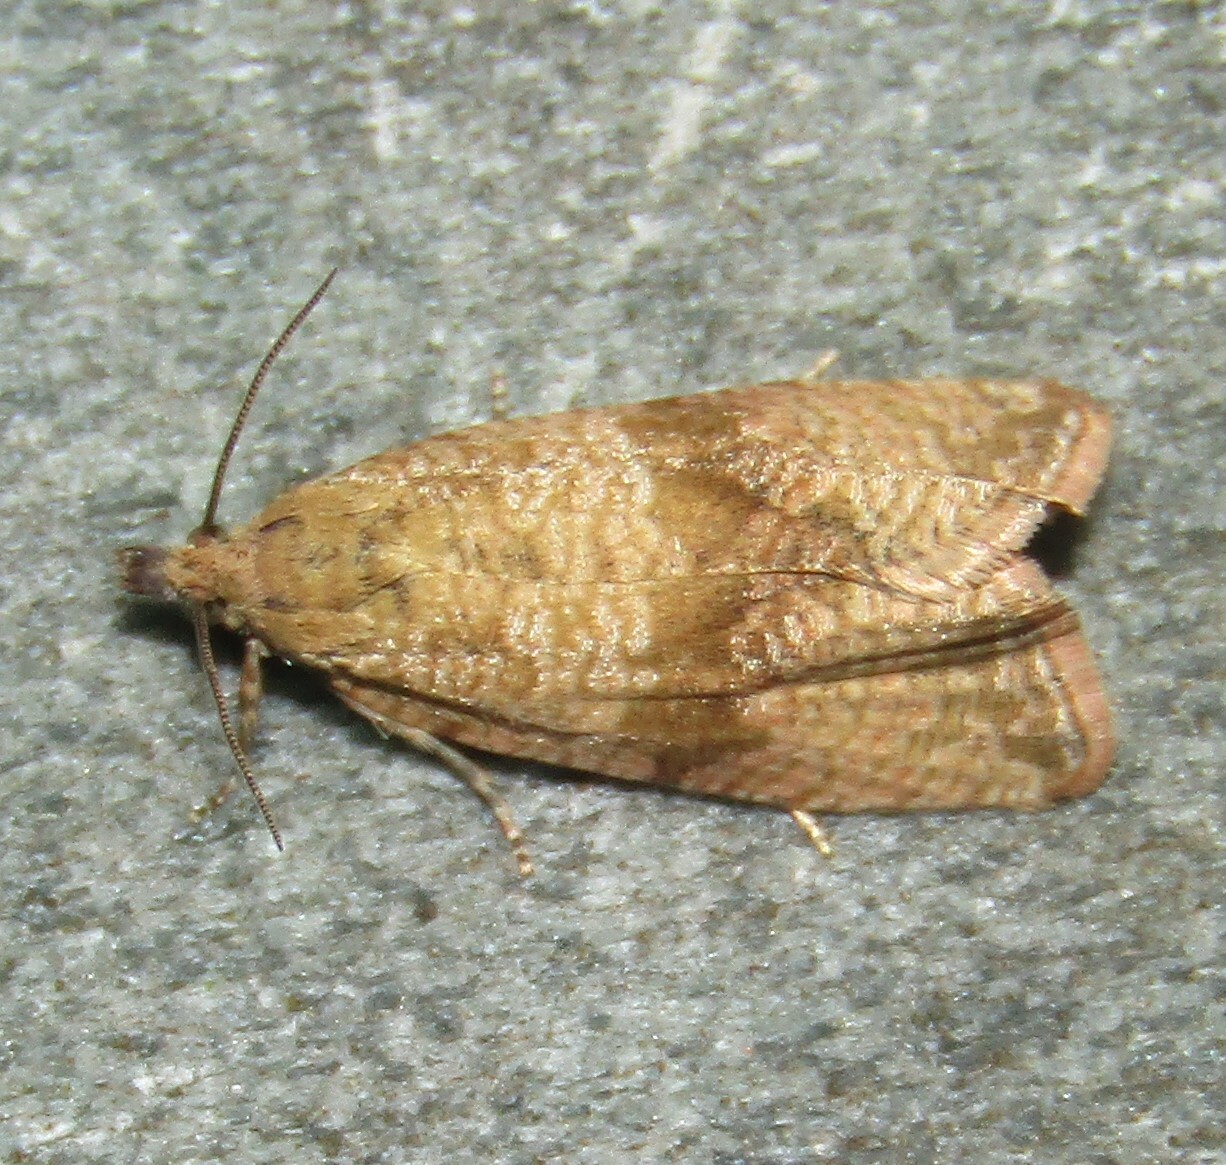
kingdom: Animalia
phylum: Arthropoda
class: Insecta
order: Lepidoptera
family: Tortricidae
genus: Celypha
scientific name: Celypha striana
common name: Barred marble
